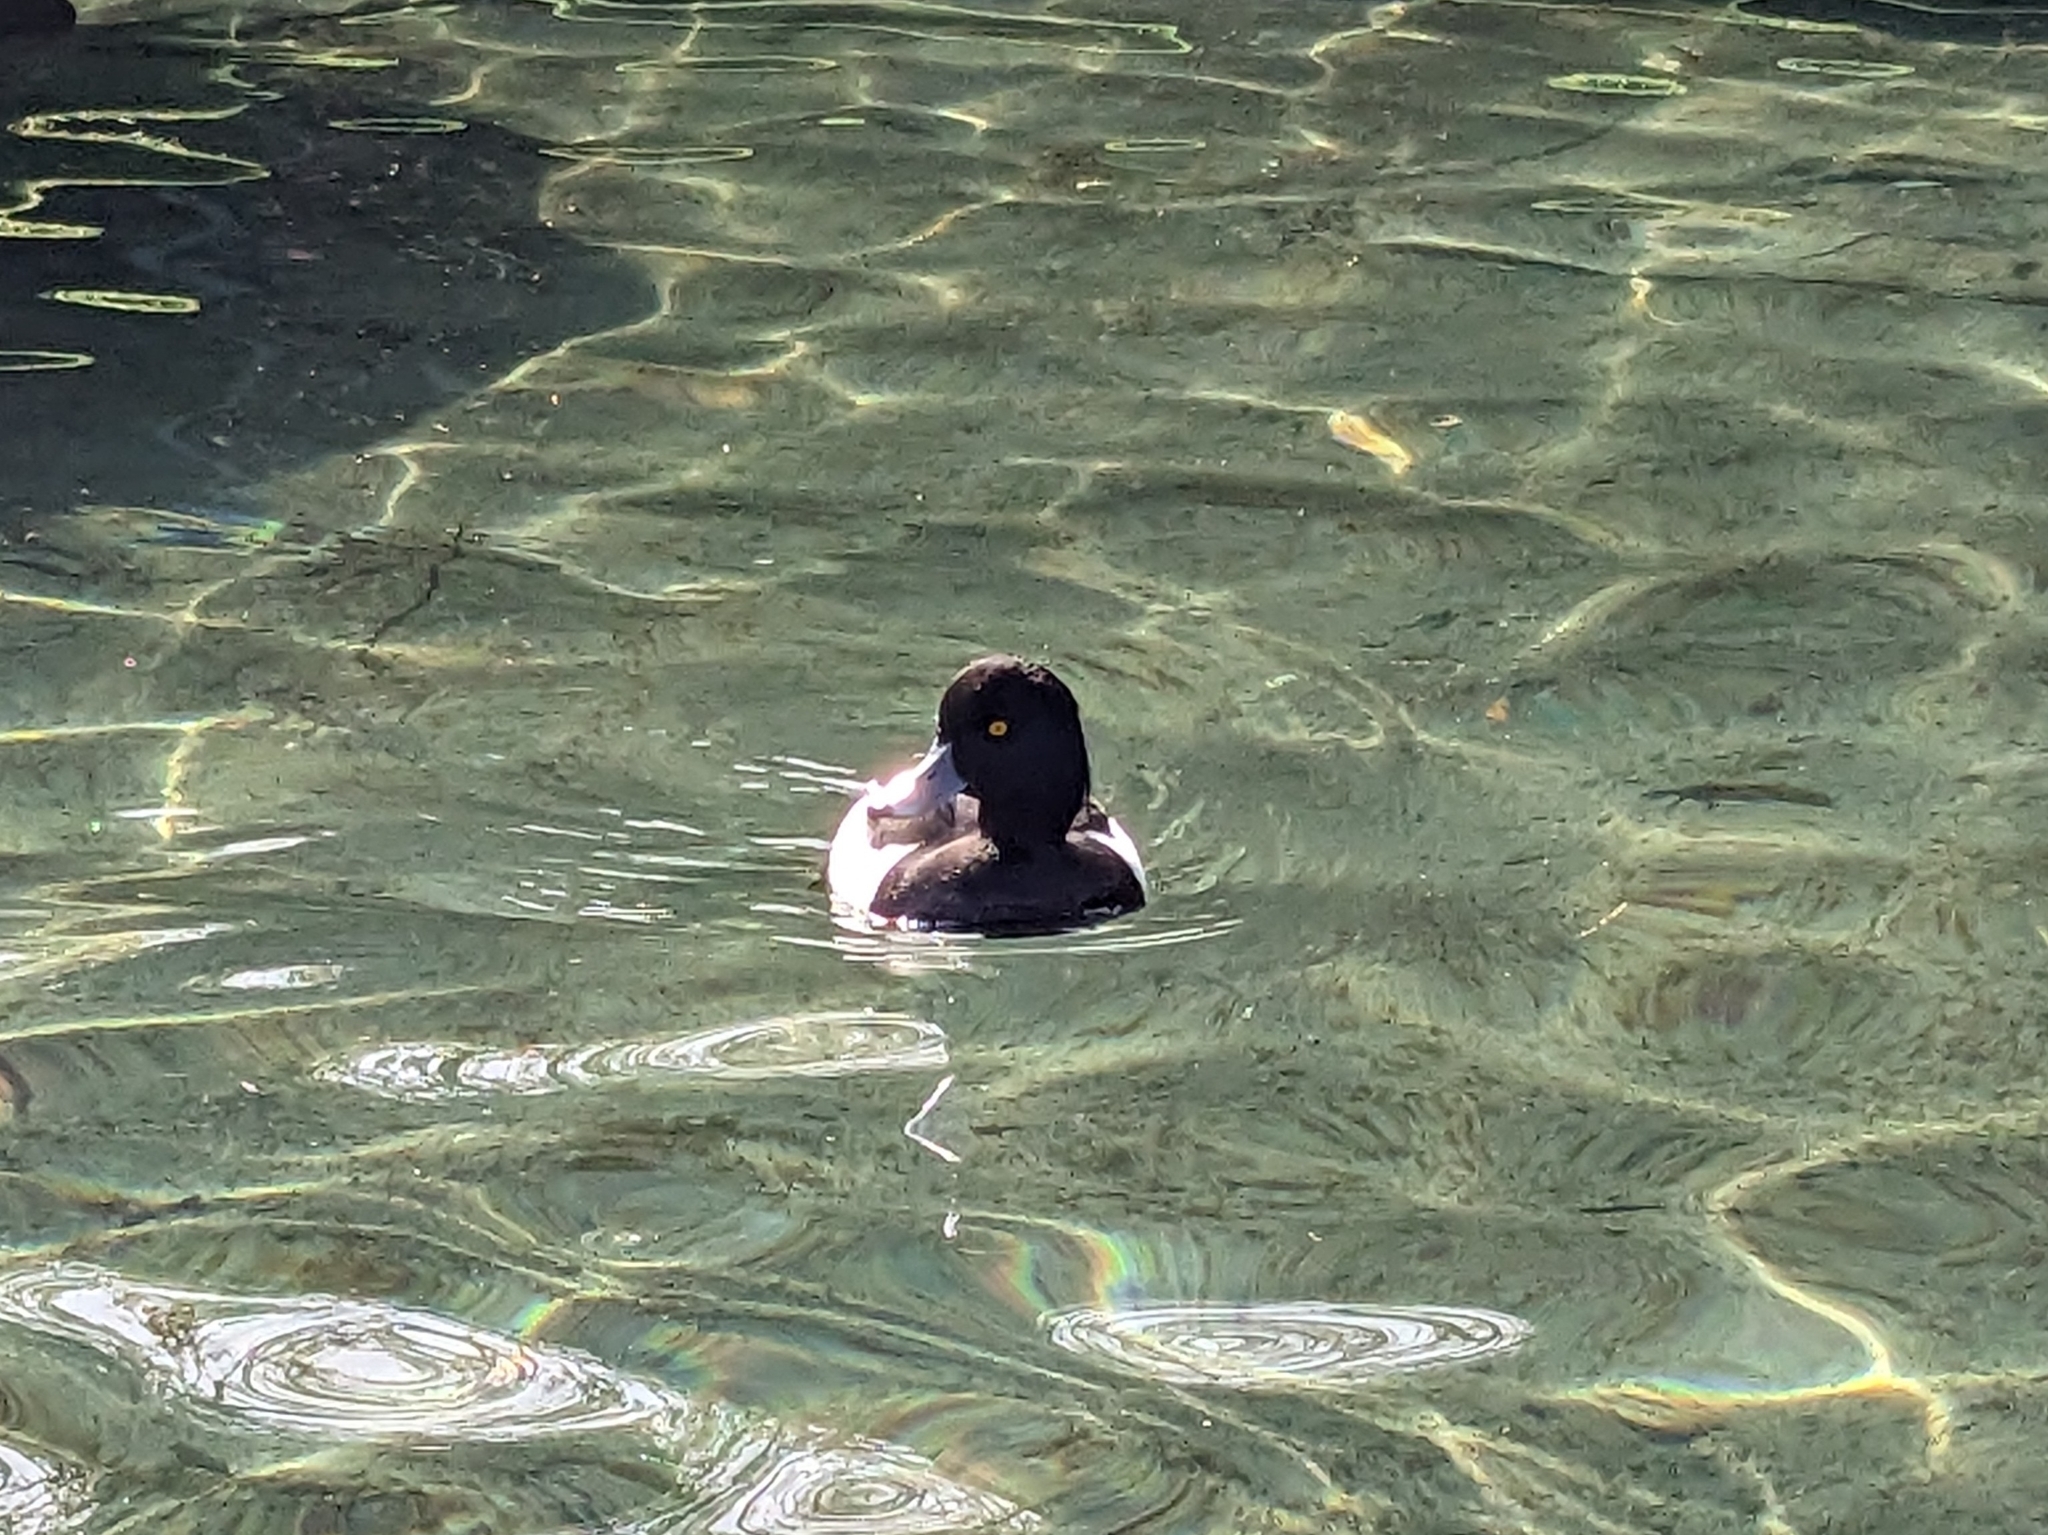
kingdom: Animalia
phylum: Chordata
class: Aves
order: Anseriformes
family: Anatidae
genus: Aythya
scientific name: Aythya fuligula
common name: Tufted duck
